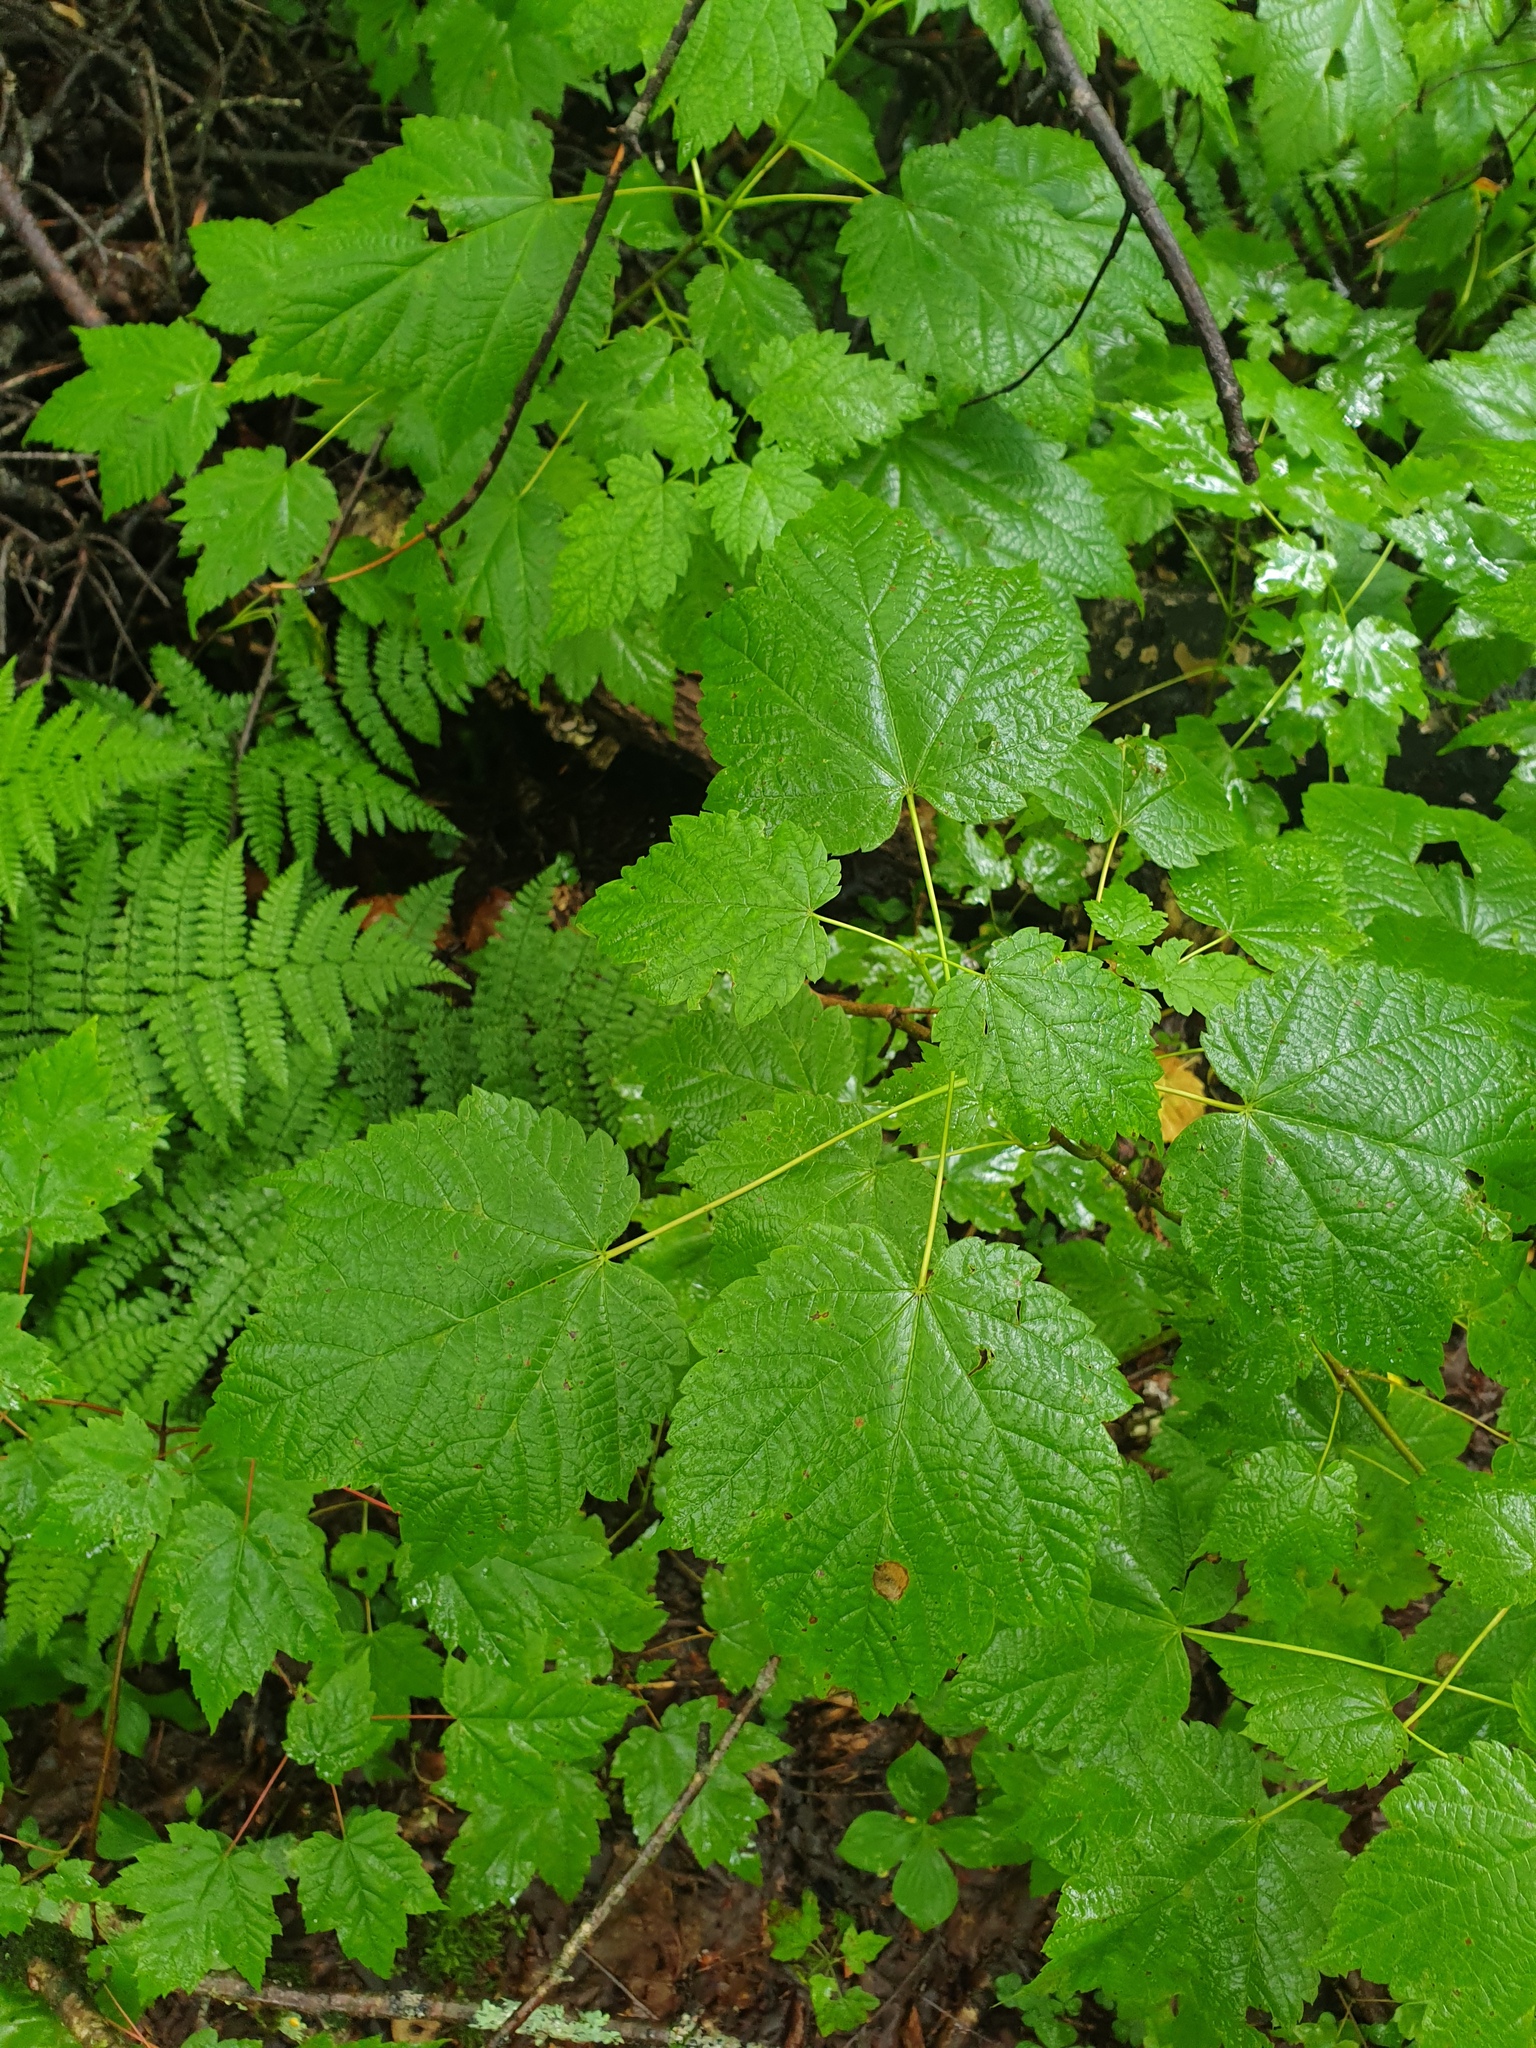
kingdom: Plantae
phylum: Tracheophyta
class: Magnoliopsida
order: Sapindales
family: Sapindaceae
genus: Acer
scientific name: Acer spicatum
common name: Mountain maple
